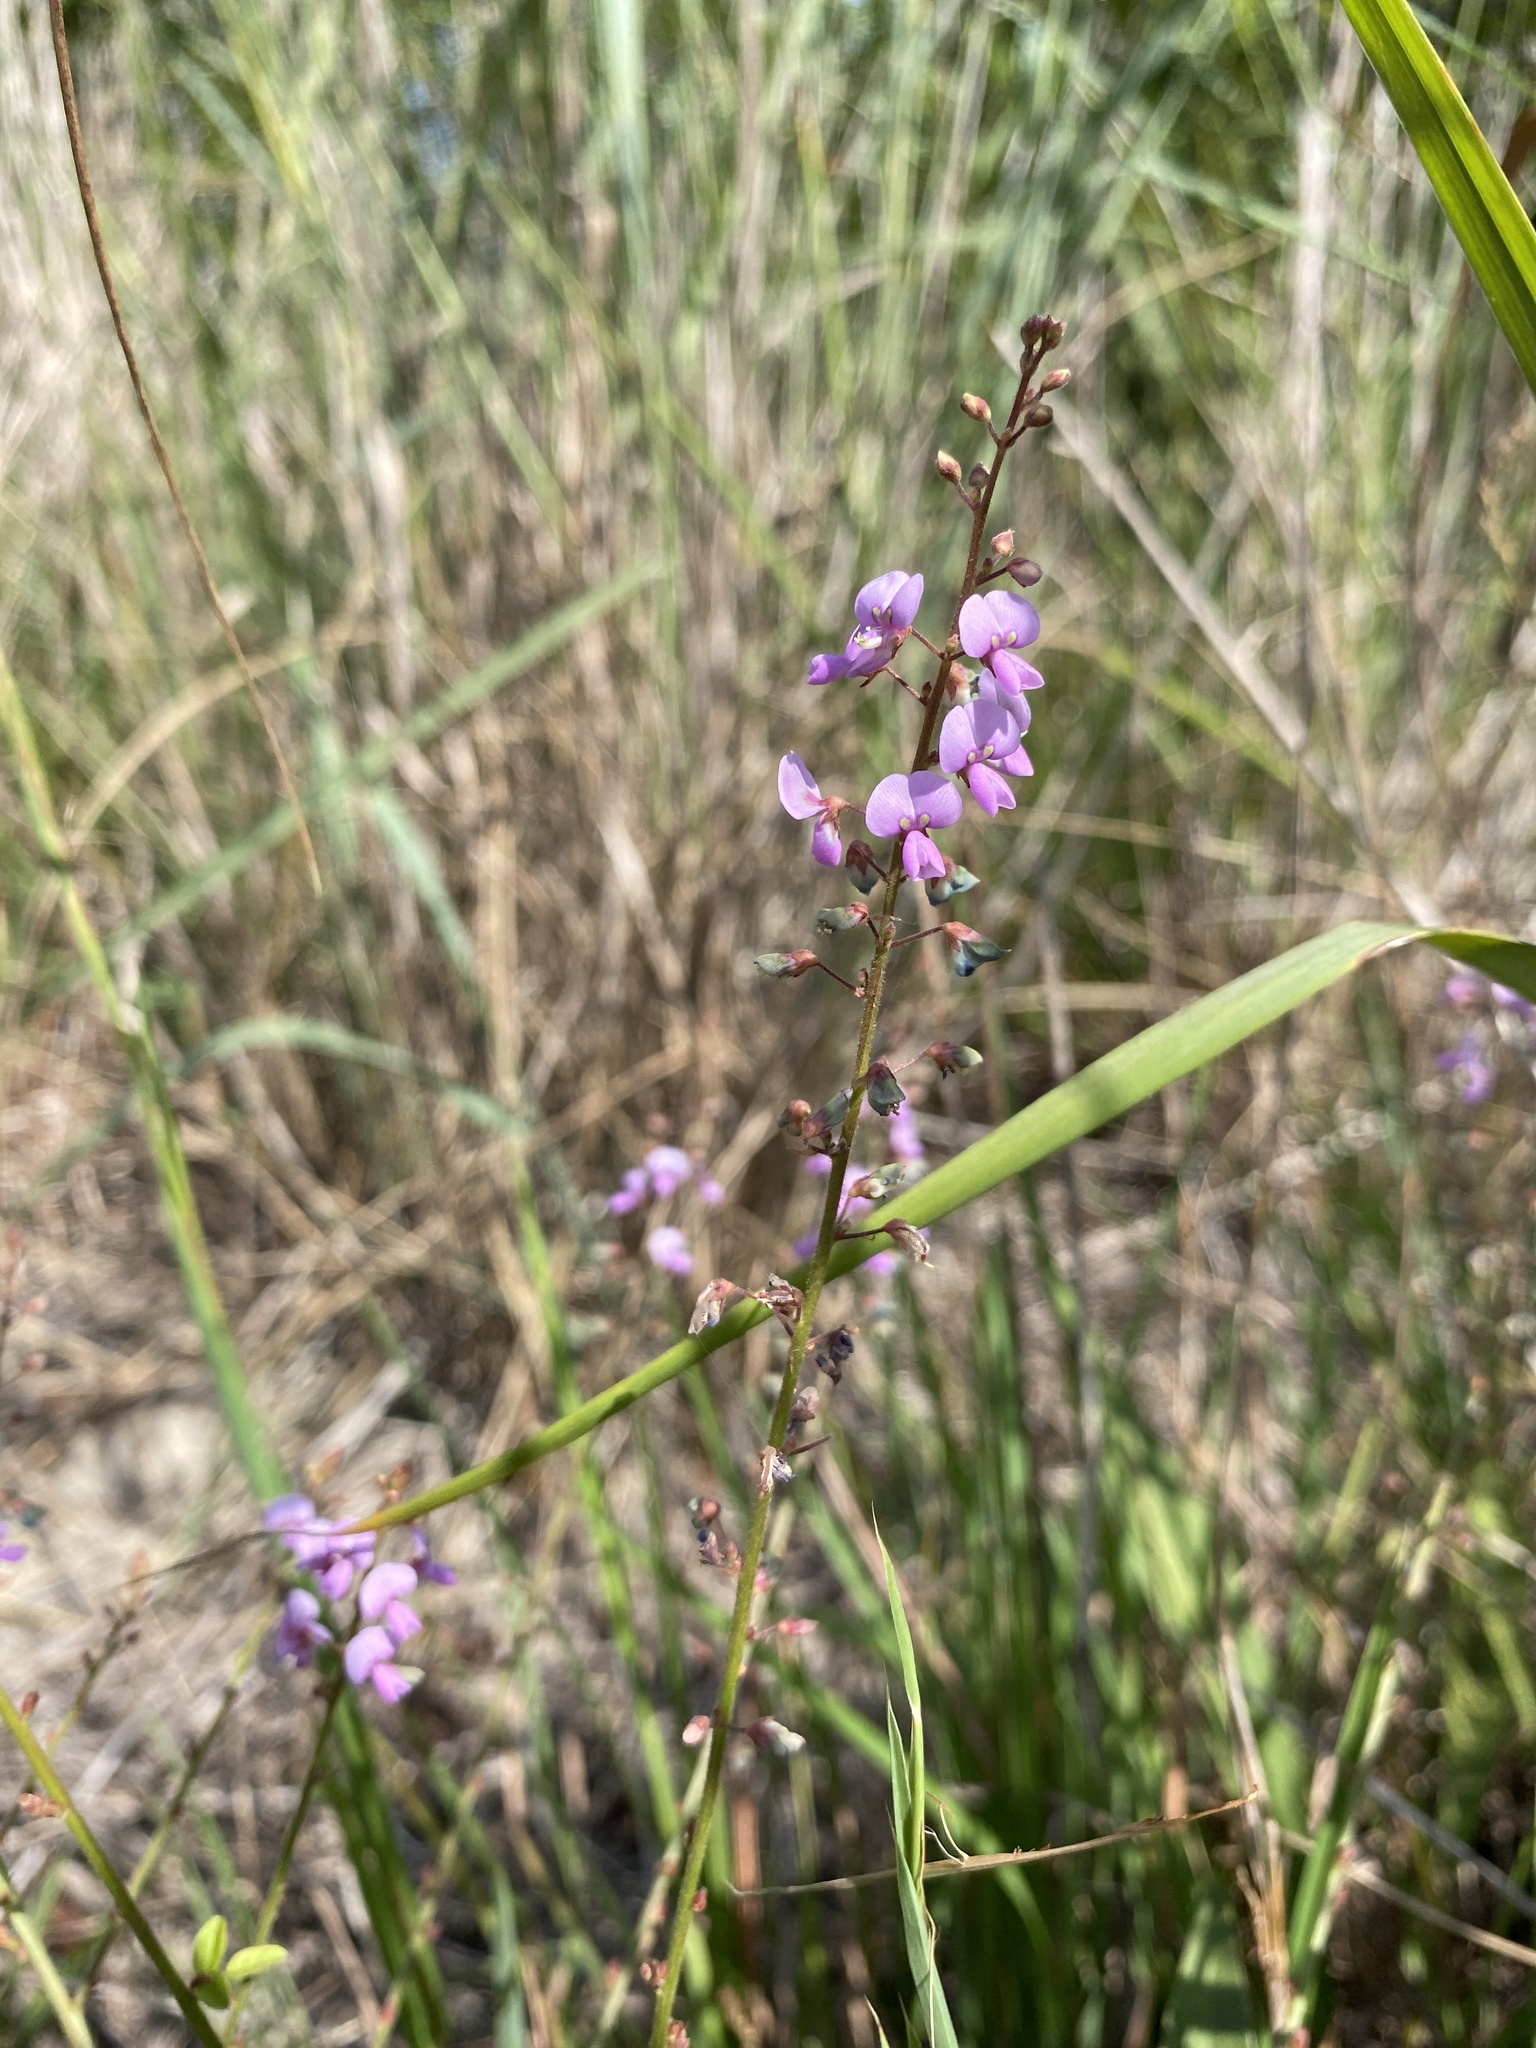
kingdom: Plantae
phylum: Tracheophyta
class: Magnoliopsida
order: Fabales
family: Fabaceae
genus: Desmodium
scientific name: Desmodium ciliare
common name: Hairy small-leaf ticktrefoil
